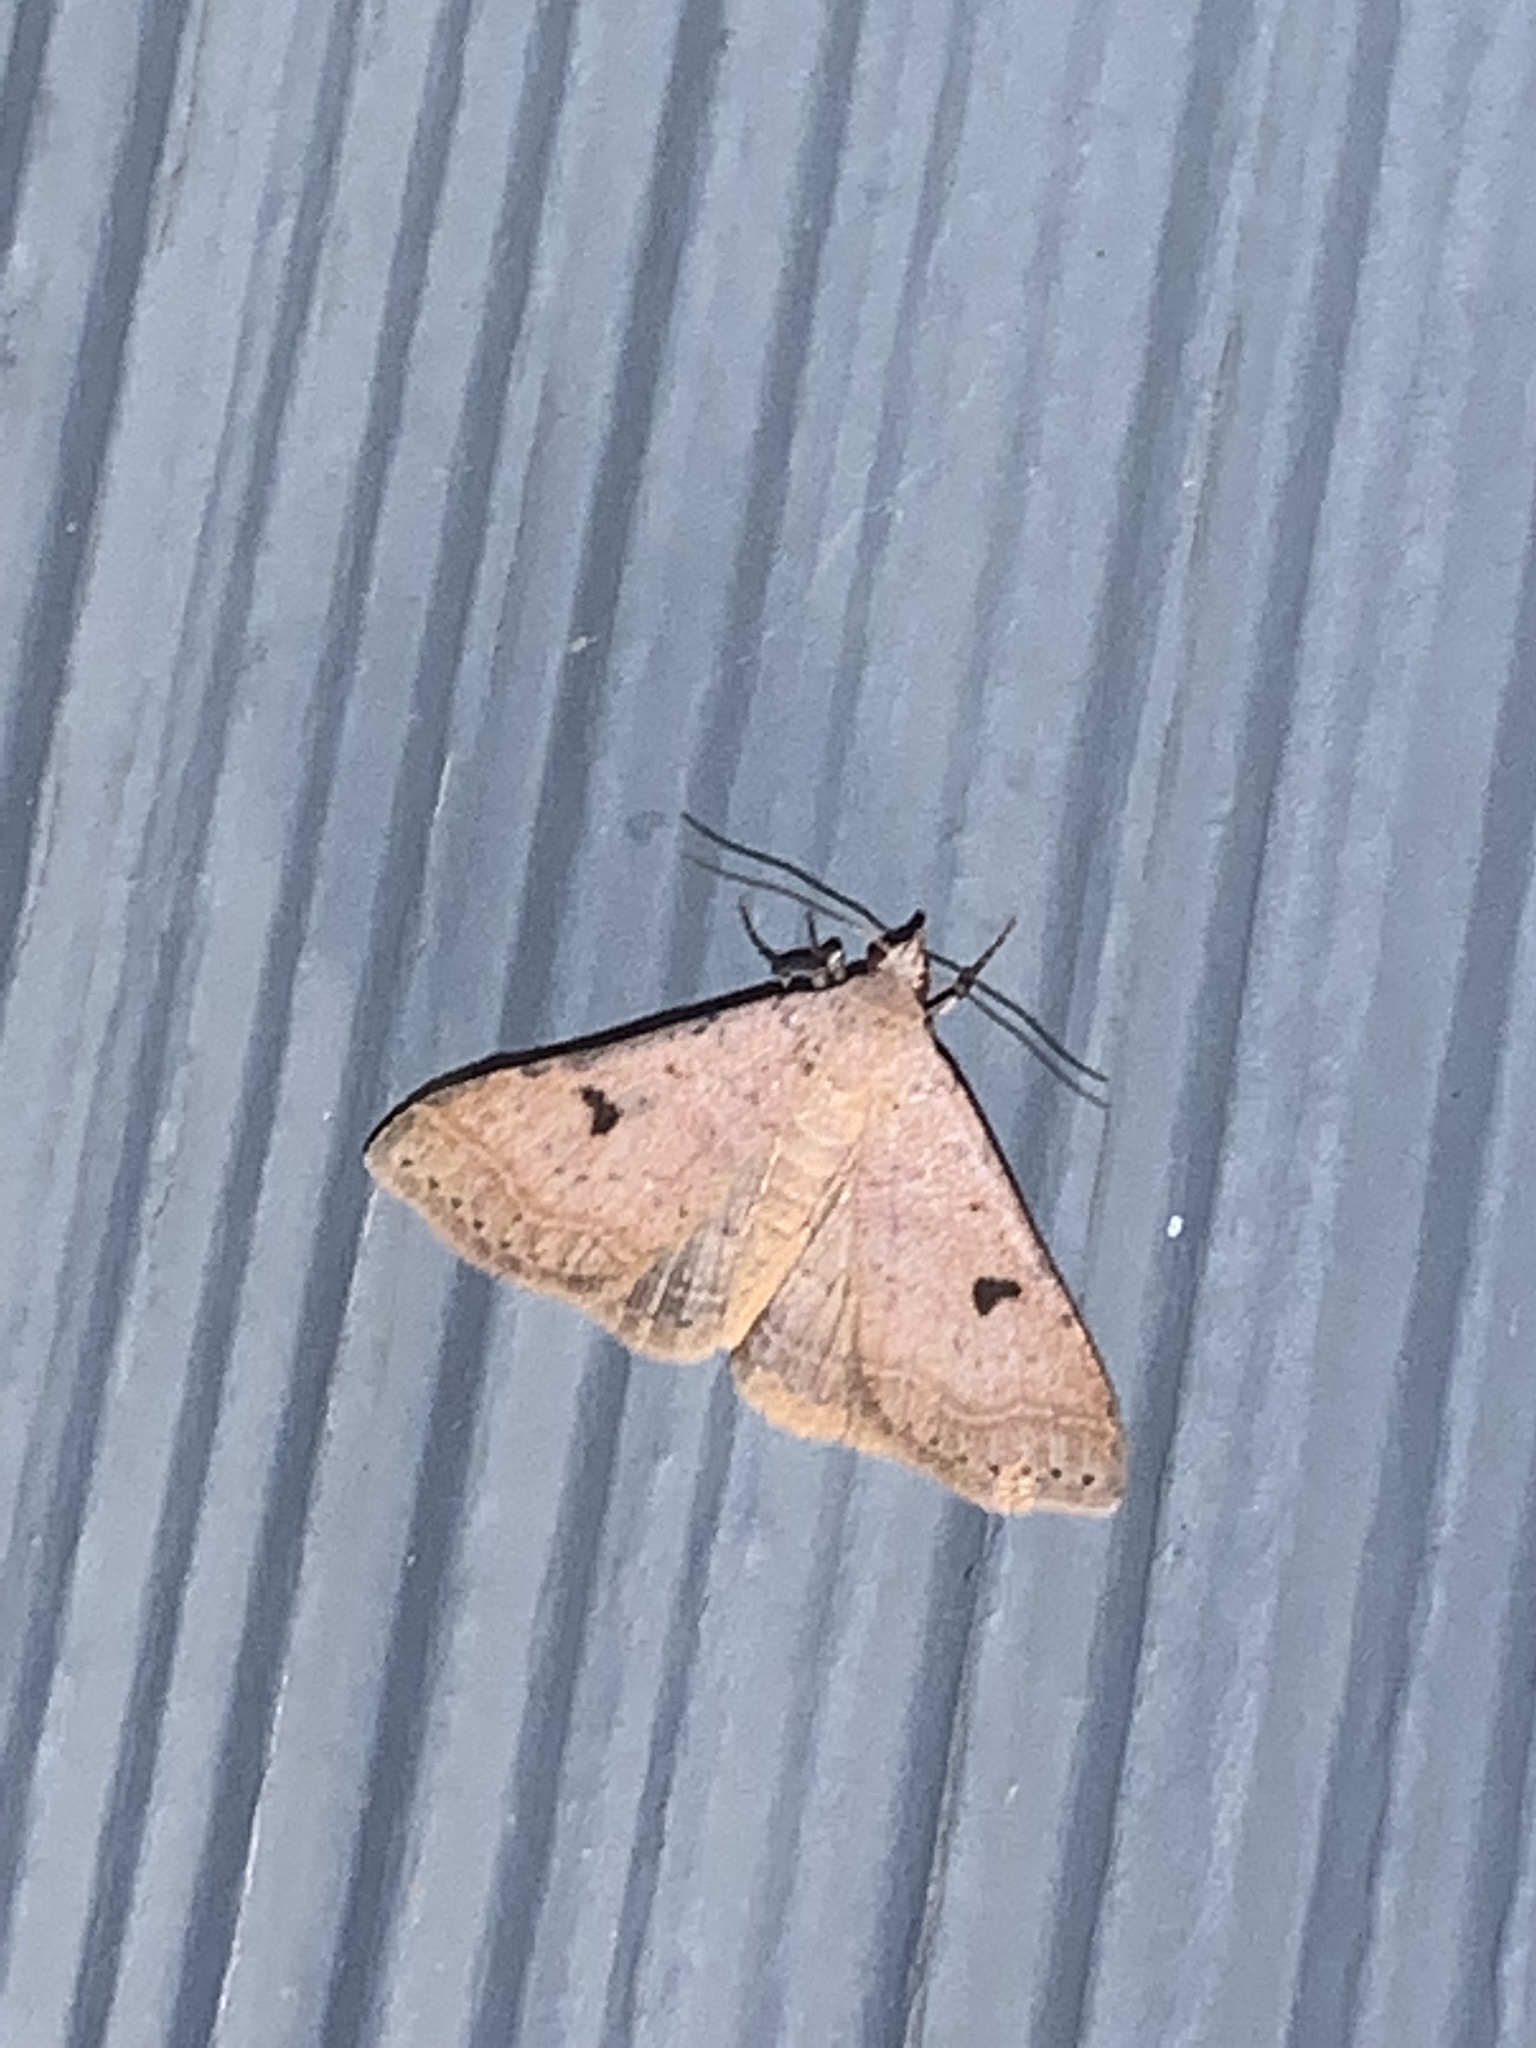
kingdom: Animalia
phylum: Arthropoda
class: Insecta
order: Lepidoptera
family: Erebidae
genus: Bleptina
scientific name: Bleptina caradrinalis
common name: Bent-winged owlet
